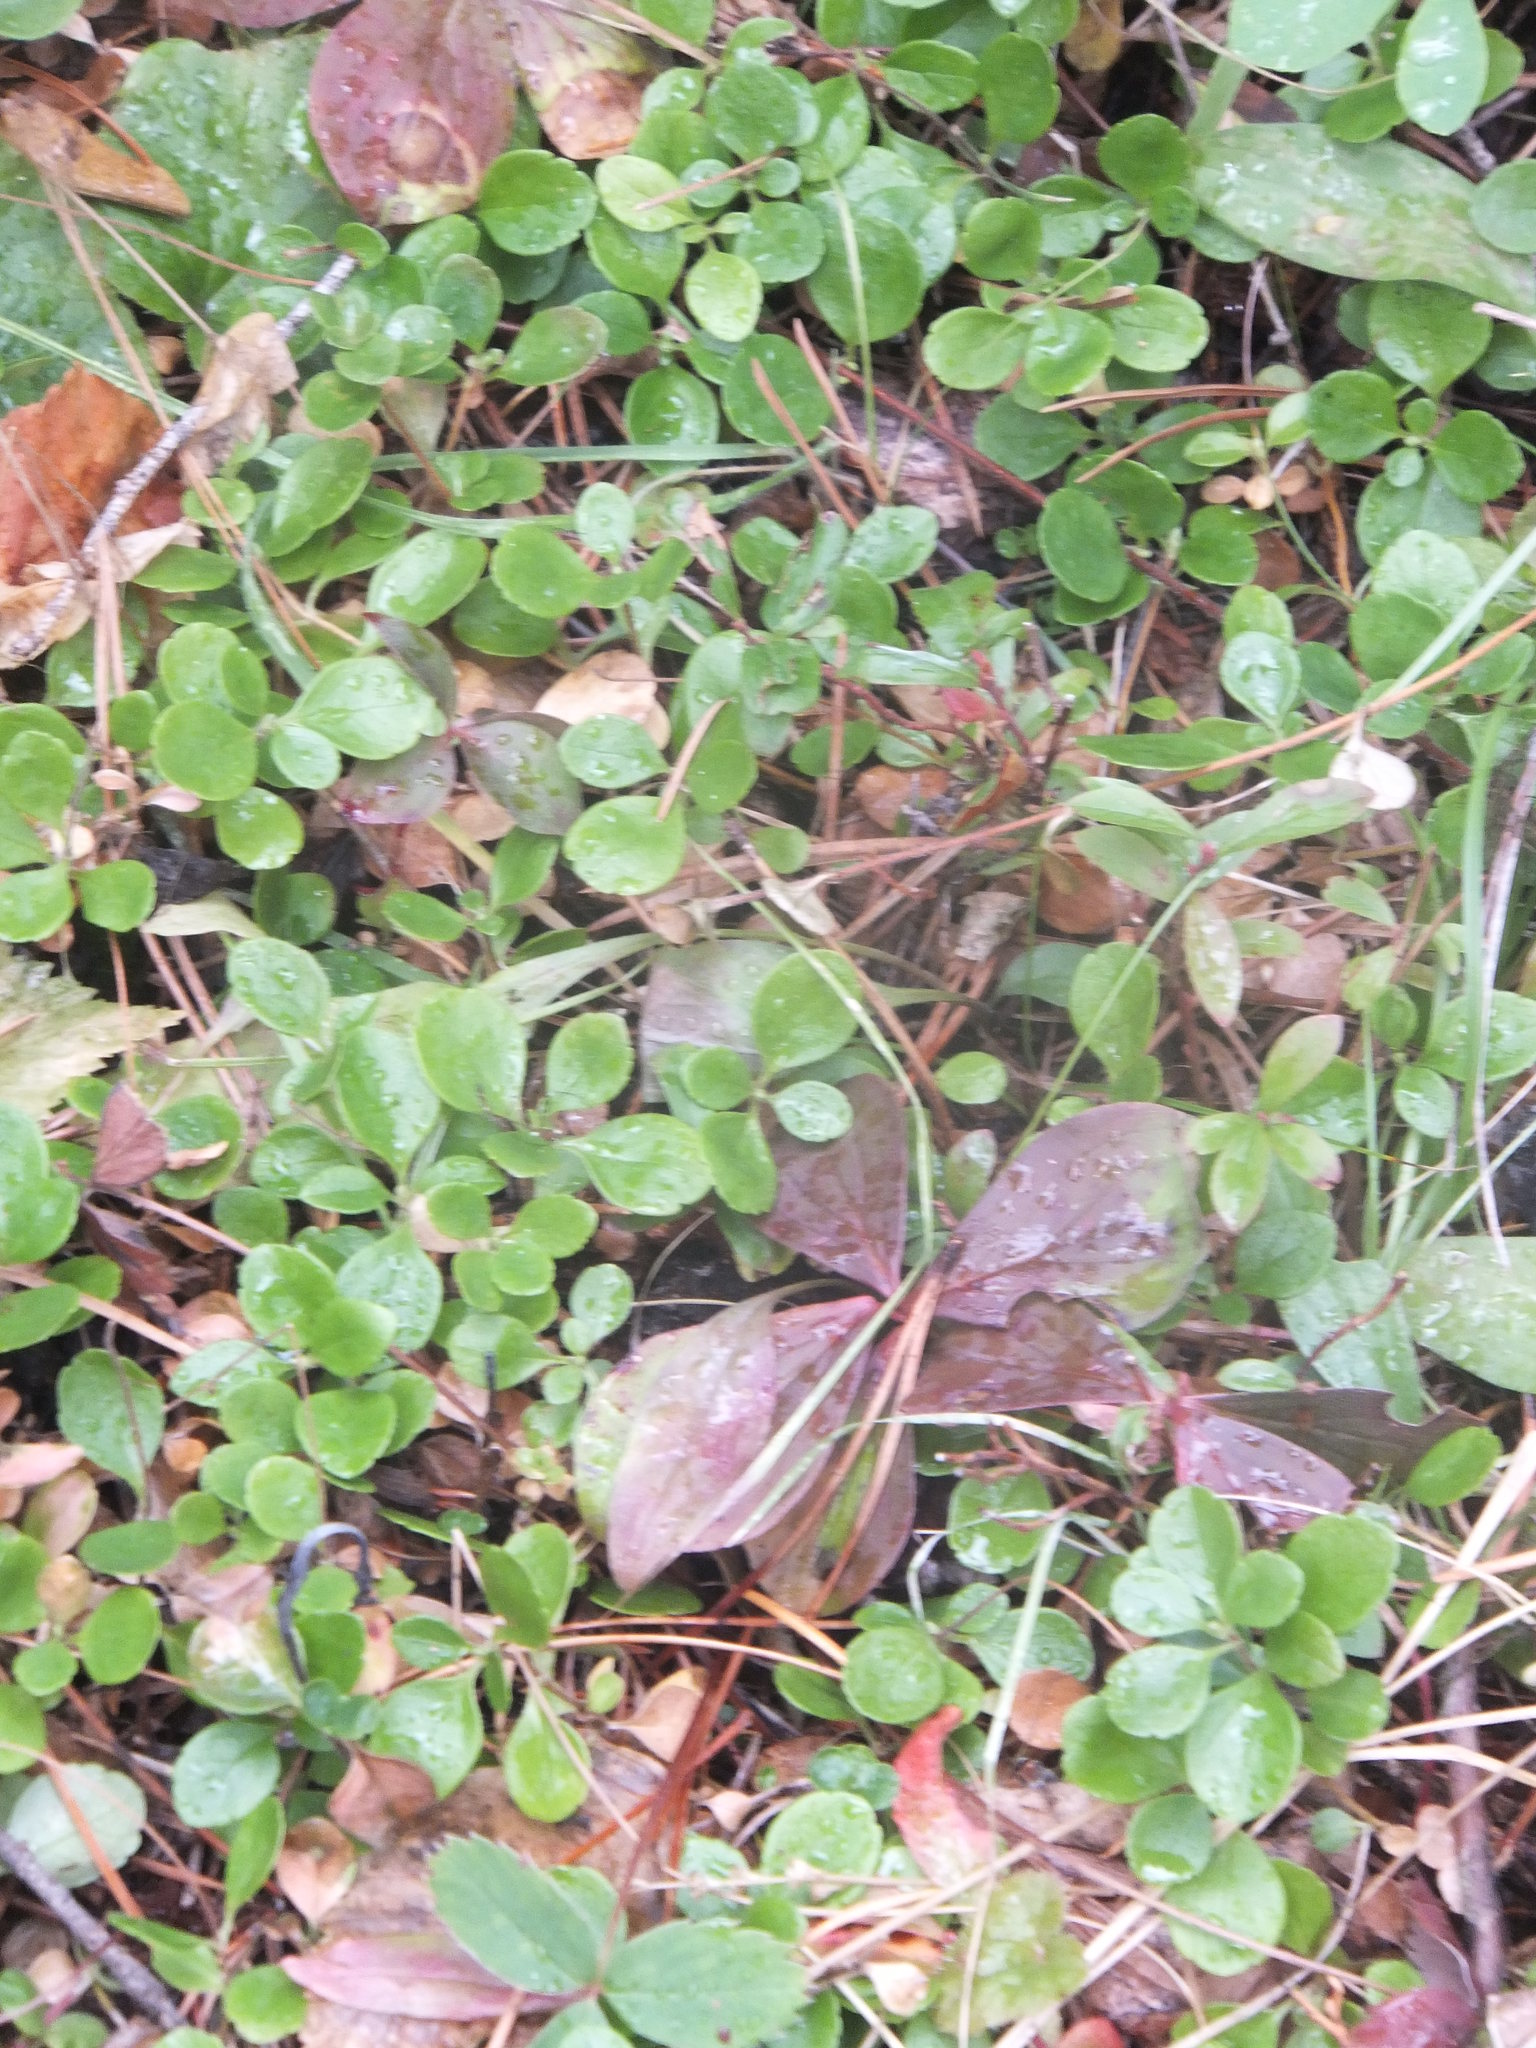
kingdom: Plantae
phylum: Tracheophyta
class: Magnoliopsida
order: Dipsacales
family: Caprifoliaceae
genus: Linnaea
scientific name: Linnaea borealis
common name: Twinflower
